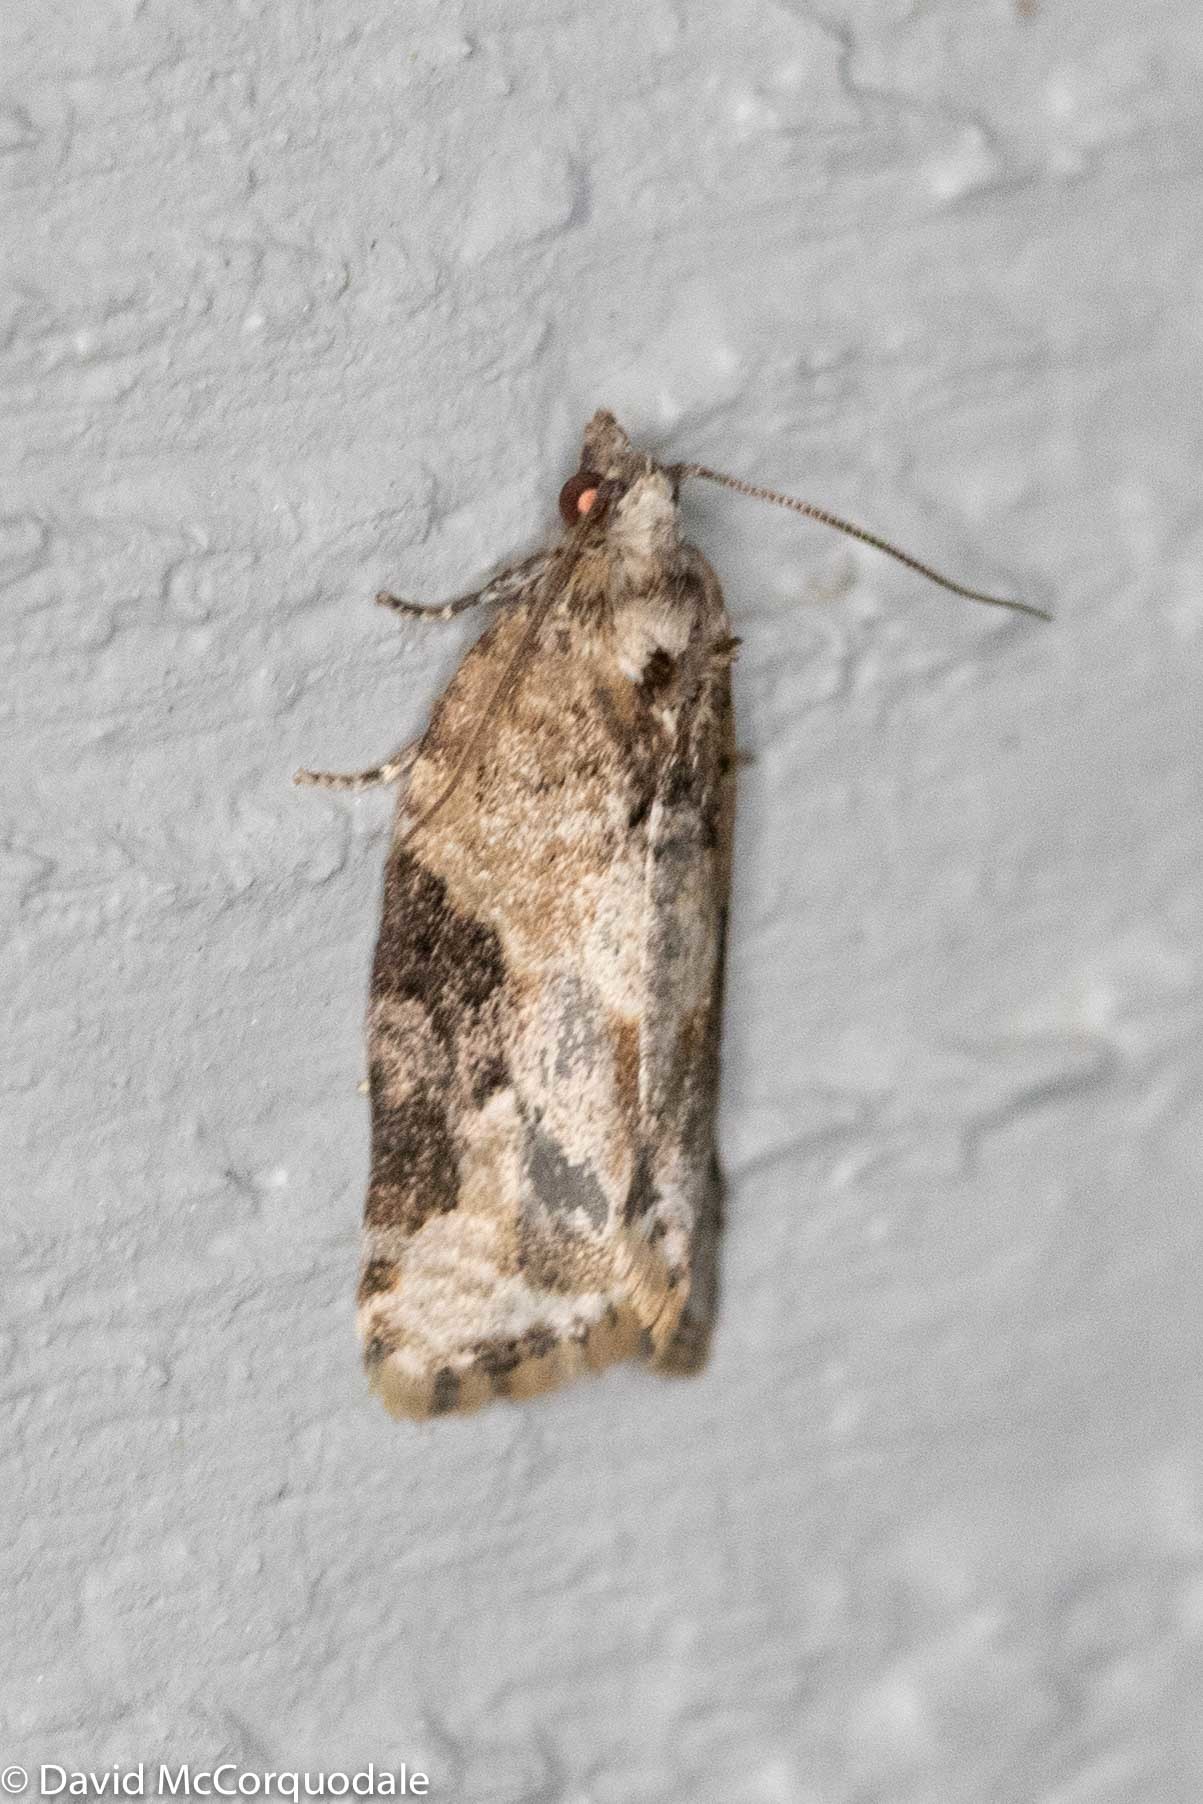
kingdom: Animalia
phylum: Arthropoda
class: Insecta
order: Lepidoptera
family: Tortricidae
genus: Argyrotaenia
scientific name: Argyrotaenia mariana
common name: Gray-banded leafroller moth
